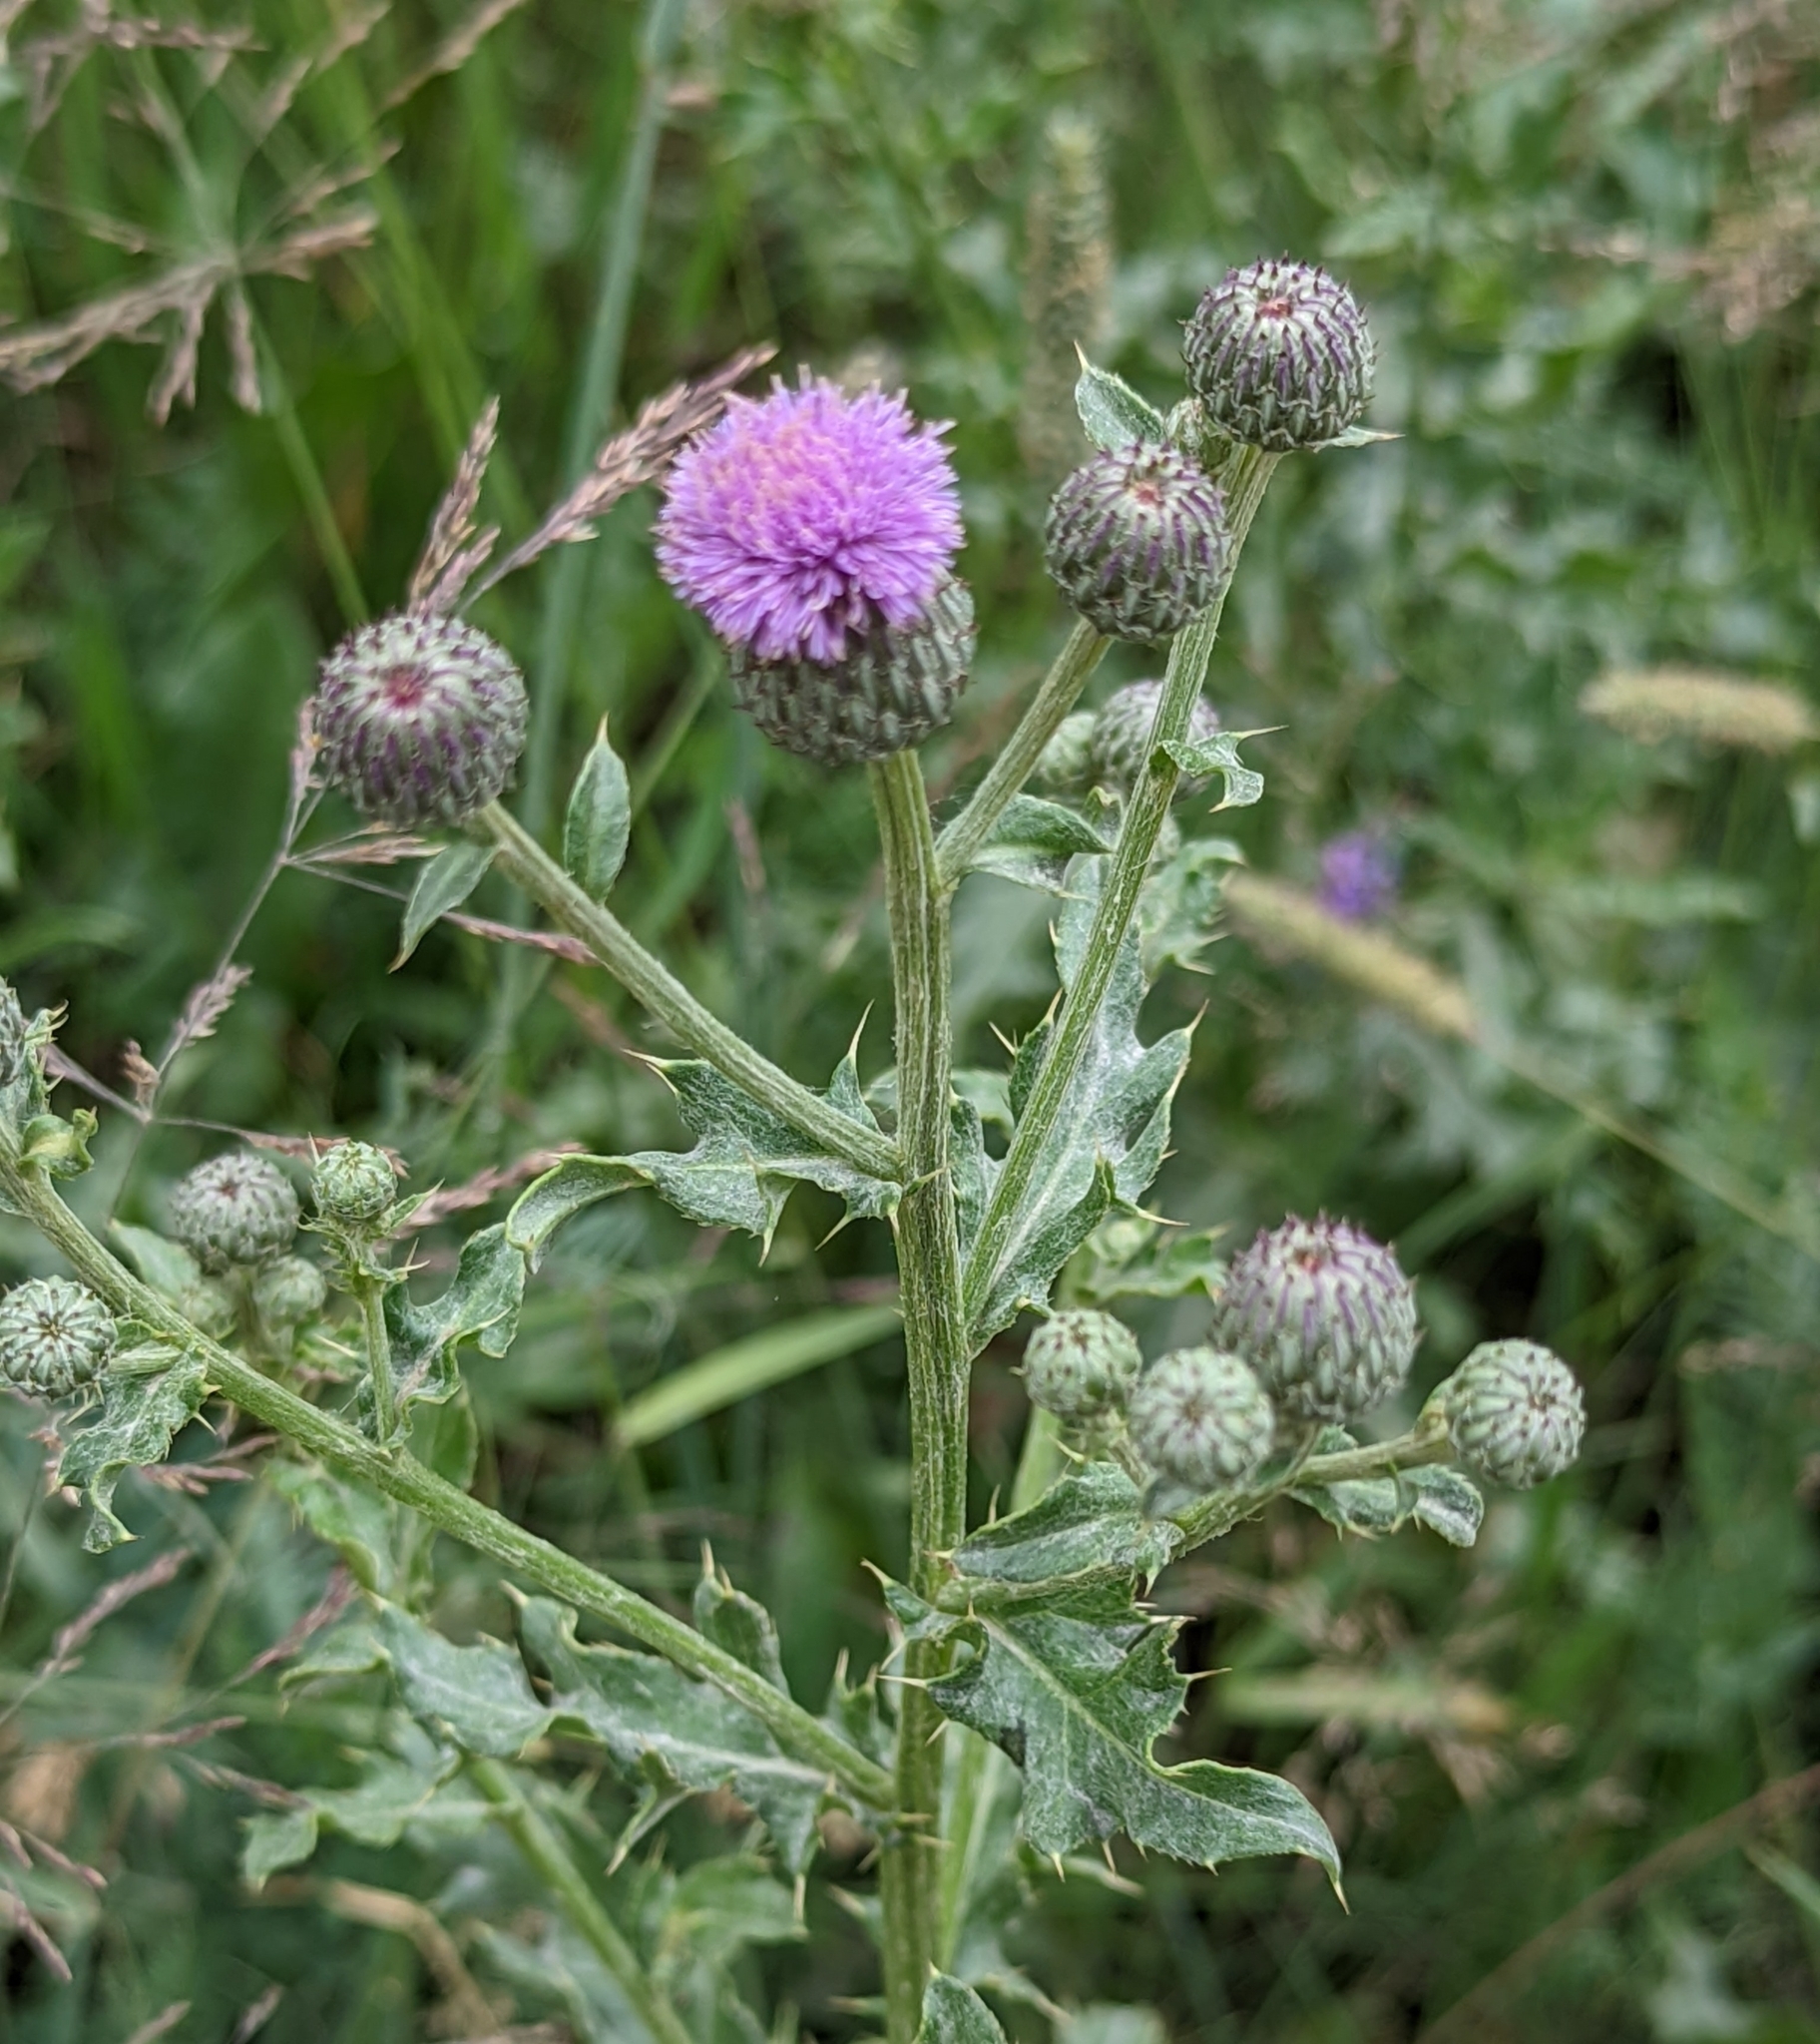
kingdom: Plantae
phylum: Tracheophyta
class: Magnoliopsida
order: Asterales
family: Asteraceae
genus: Cirsium
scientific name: Cirsium arvense
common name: Creeping thistle
